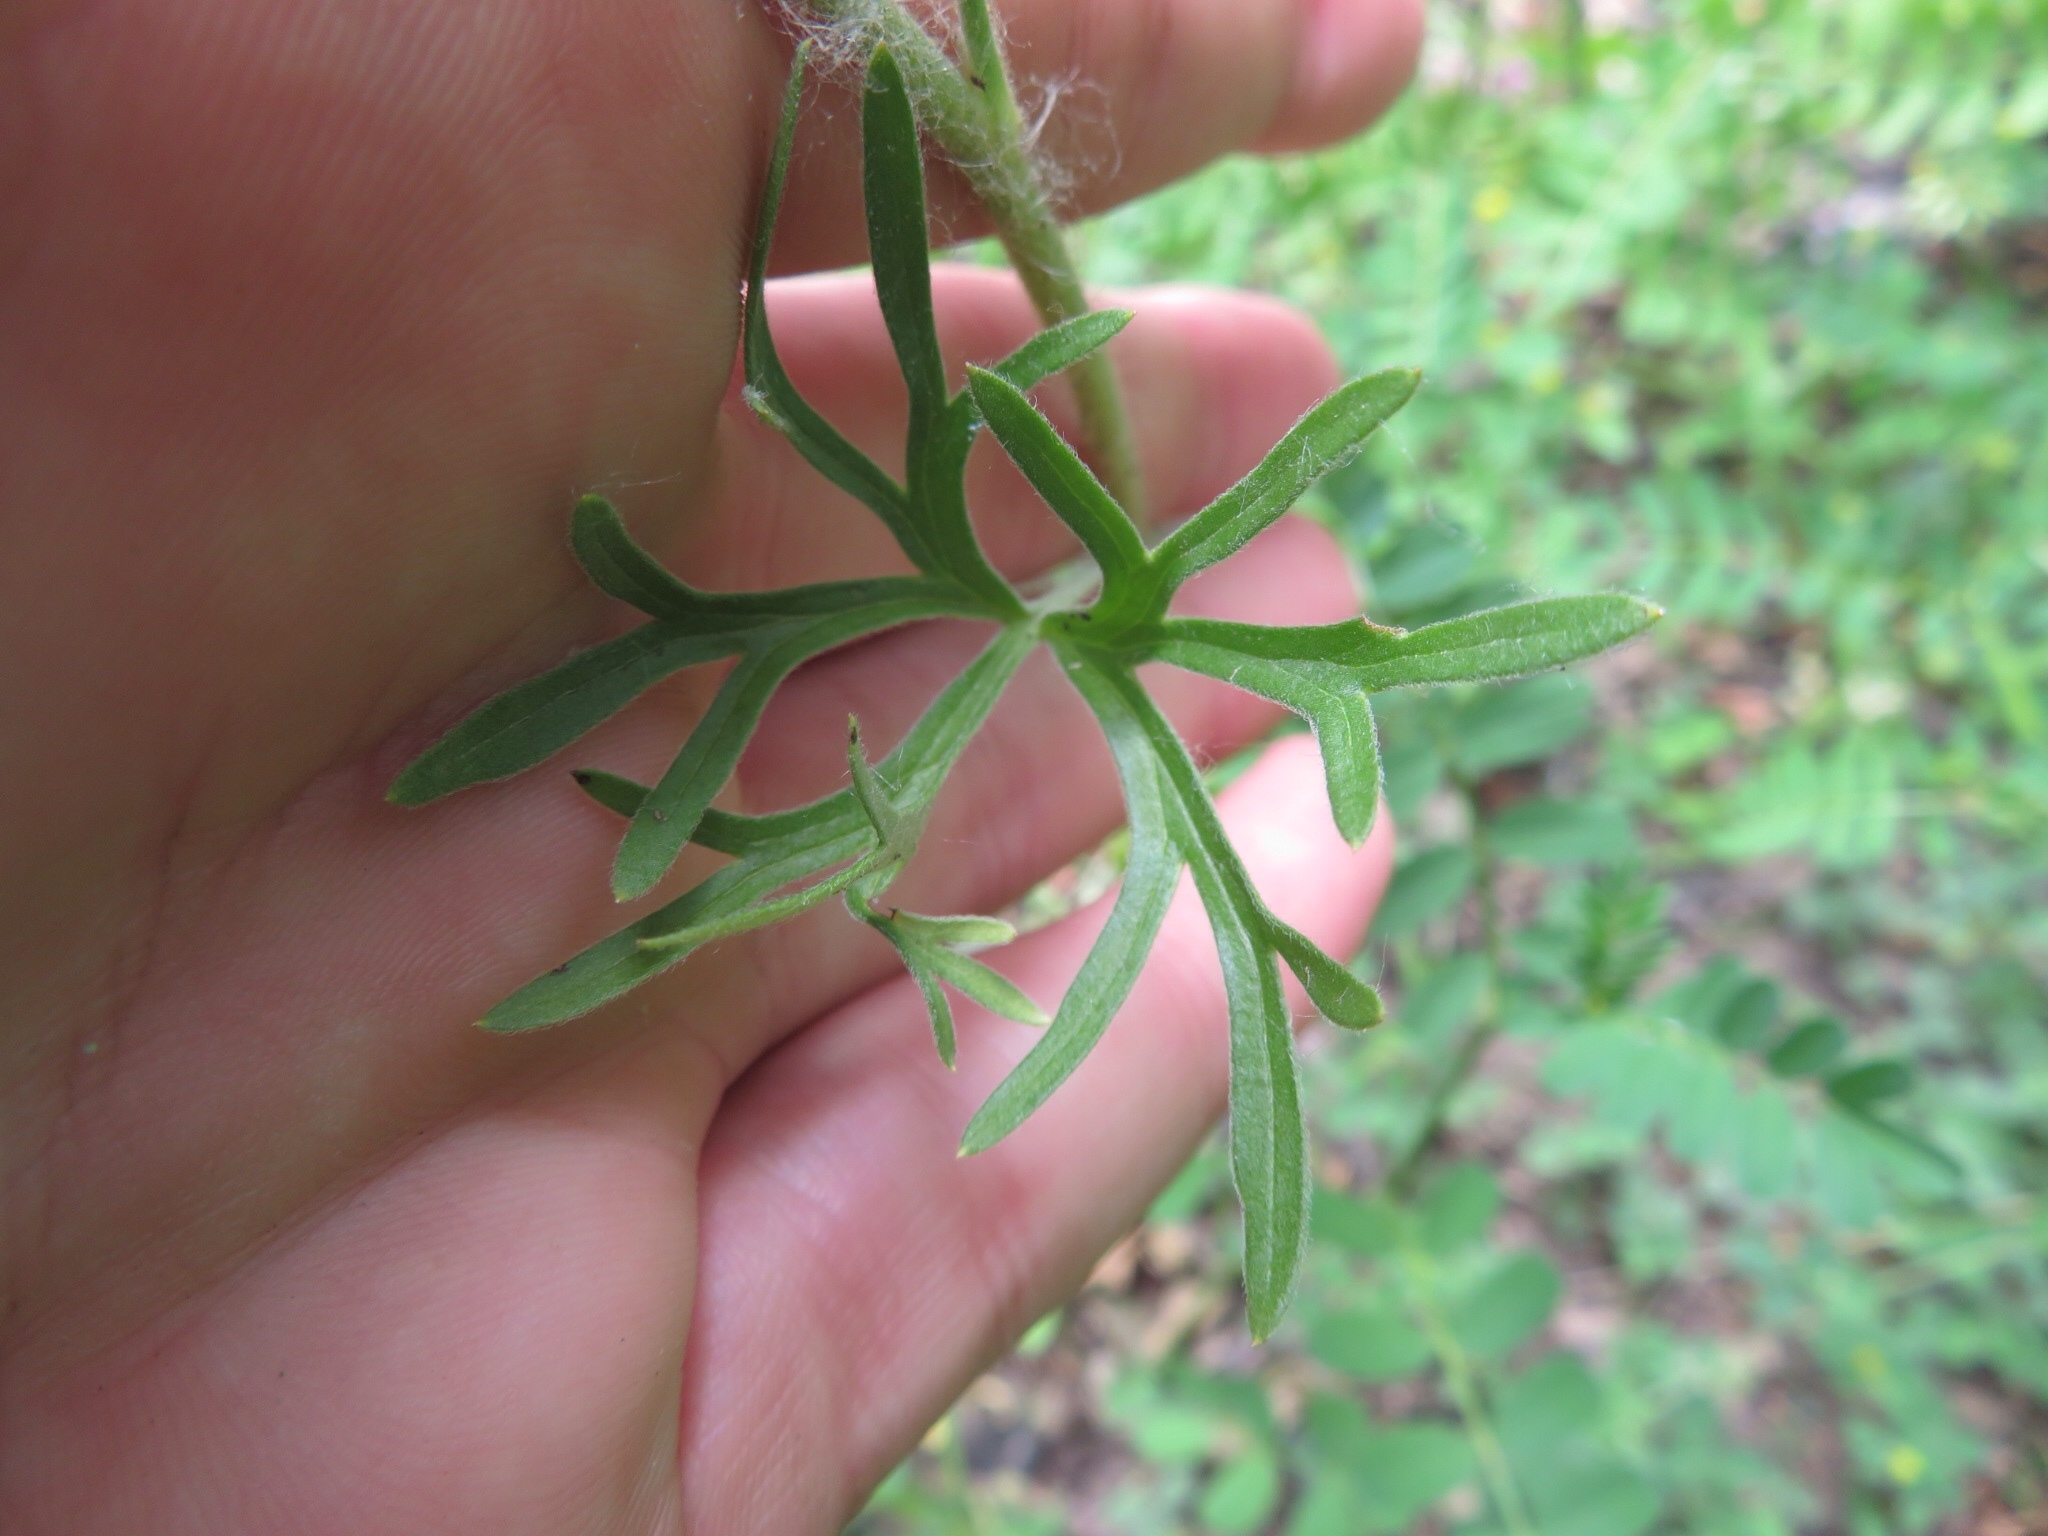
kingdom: Plantae
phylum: Tracheophyta
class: Magnoliopsida
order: Ranunculales
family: Ranunculaceae
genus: Delphinium
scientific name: Delphinium carolinianum
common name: Carolina larkspur
